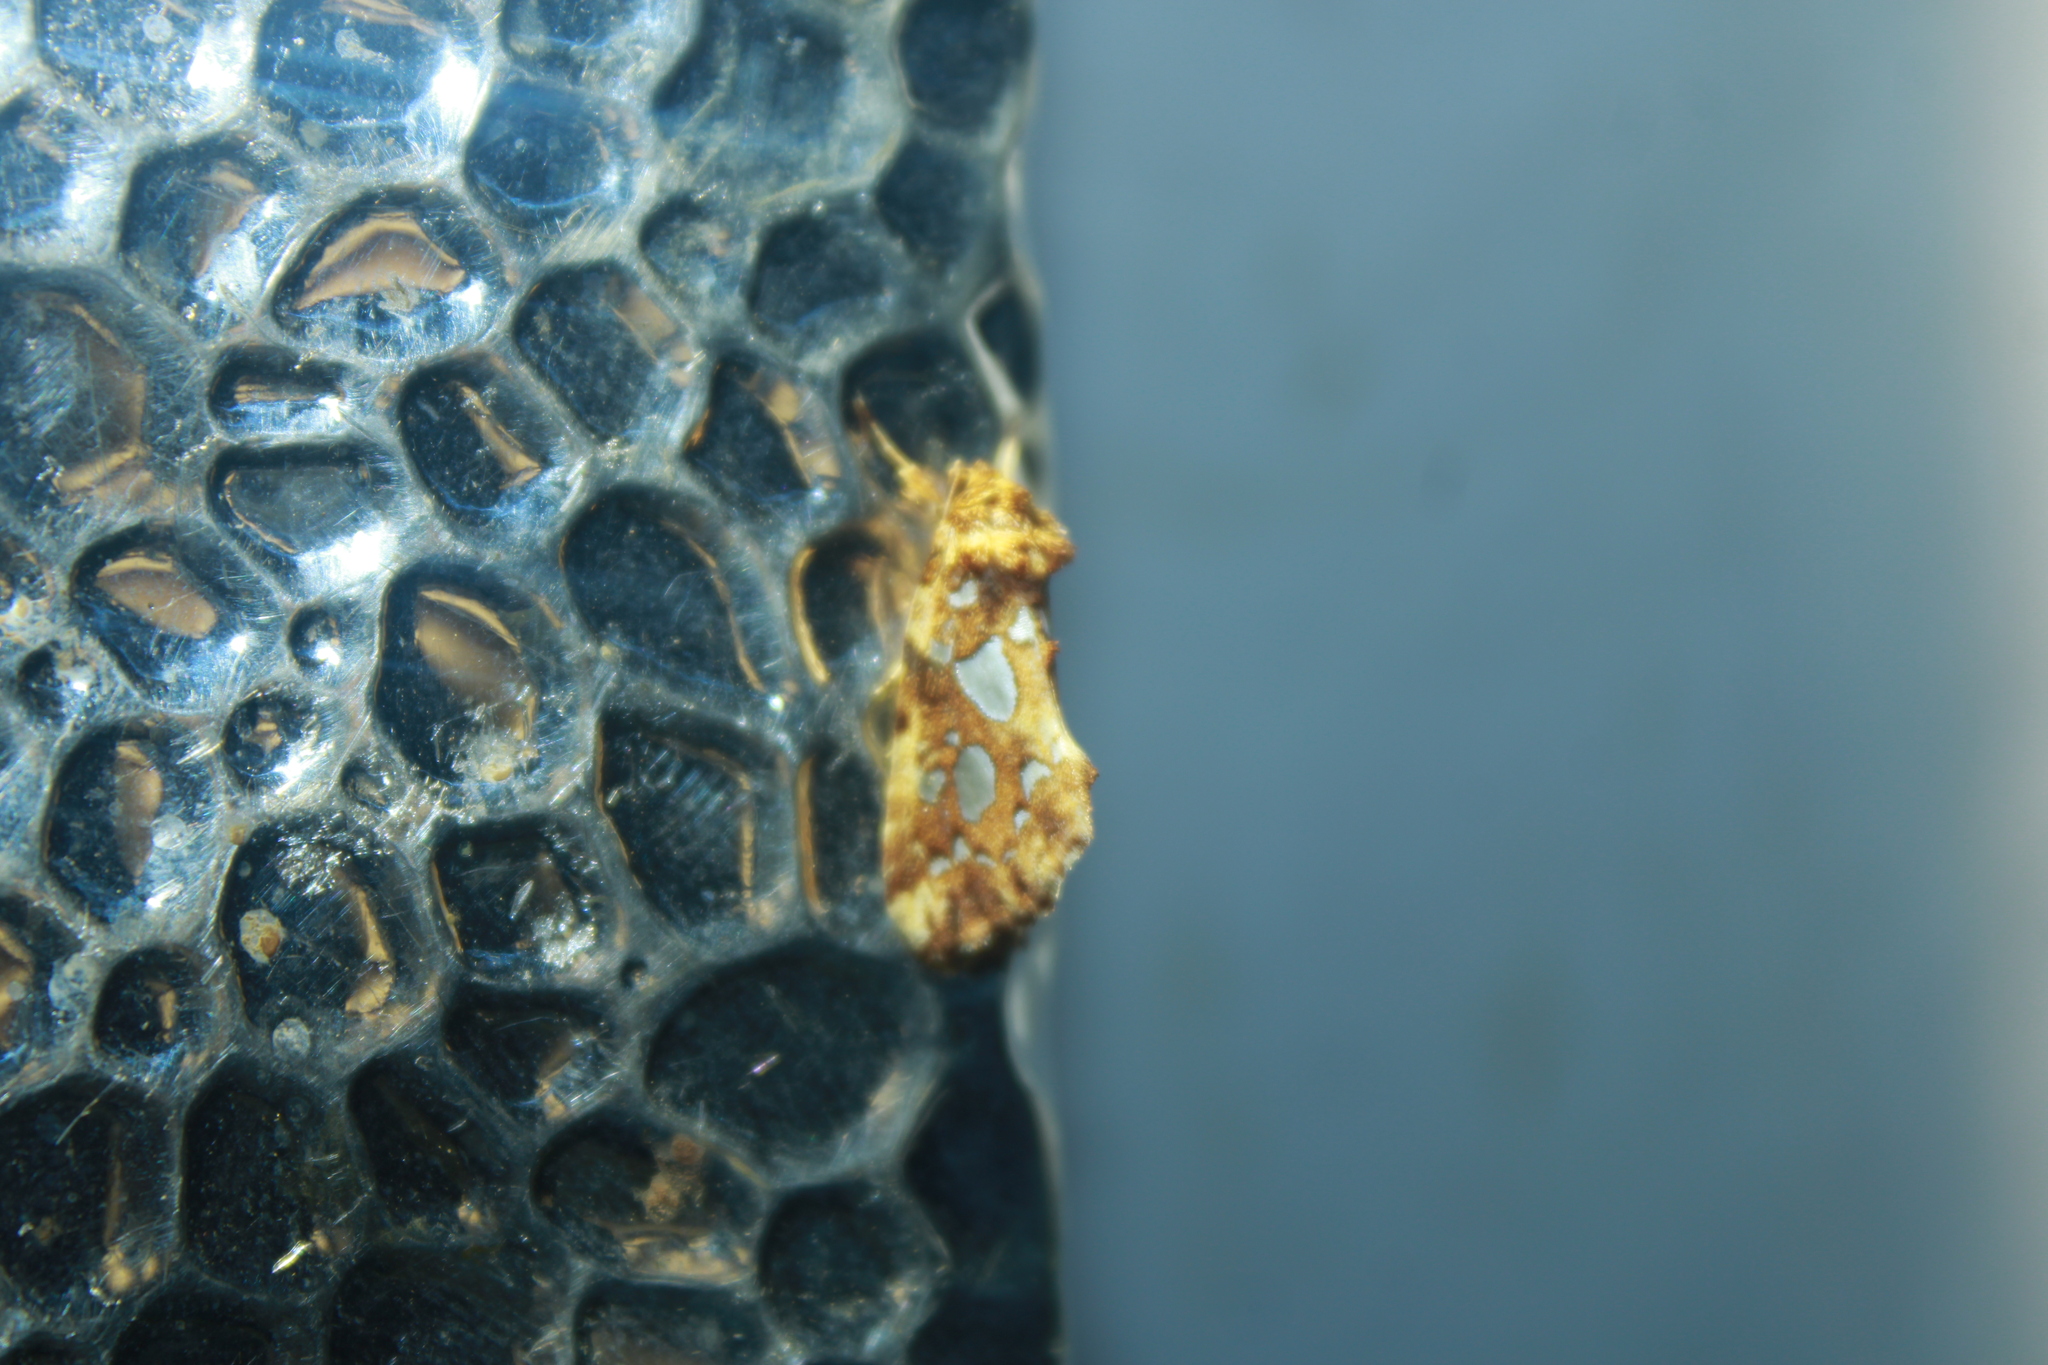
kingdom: Animalia
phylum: Arthropoda
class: Insecta
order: Lepidoptera
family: Noctuidae
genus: Callopistria
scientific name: Callopistria cordata
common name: Silver-spotted fern moth
